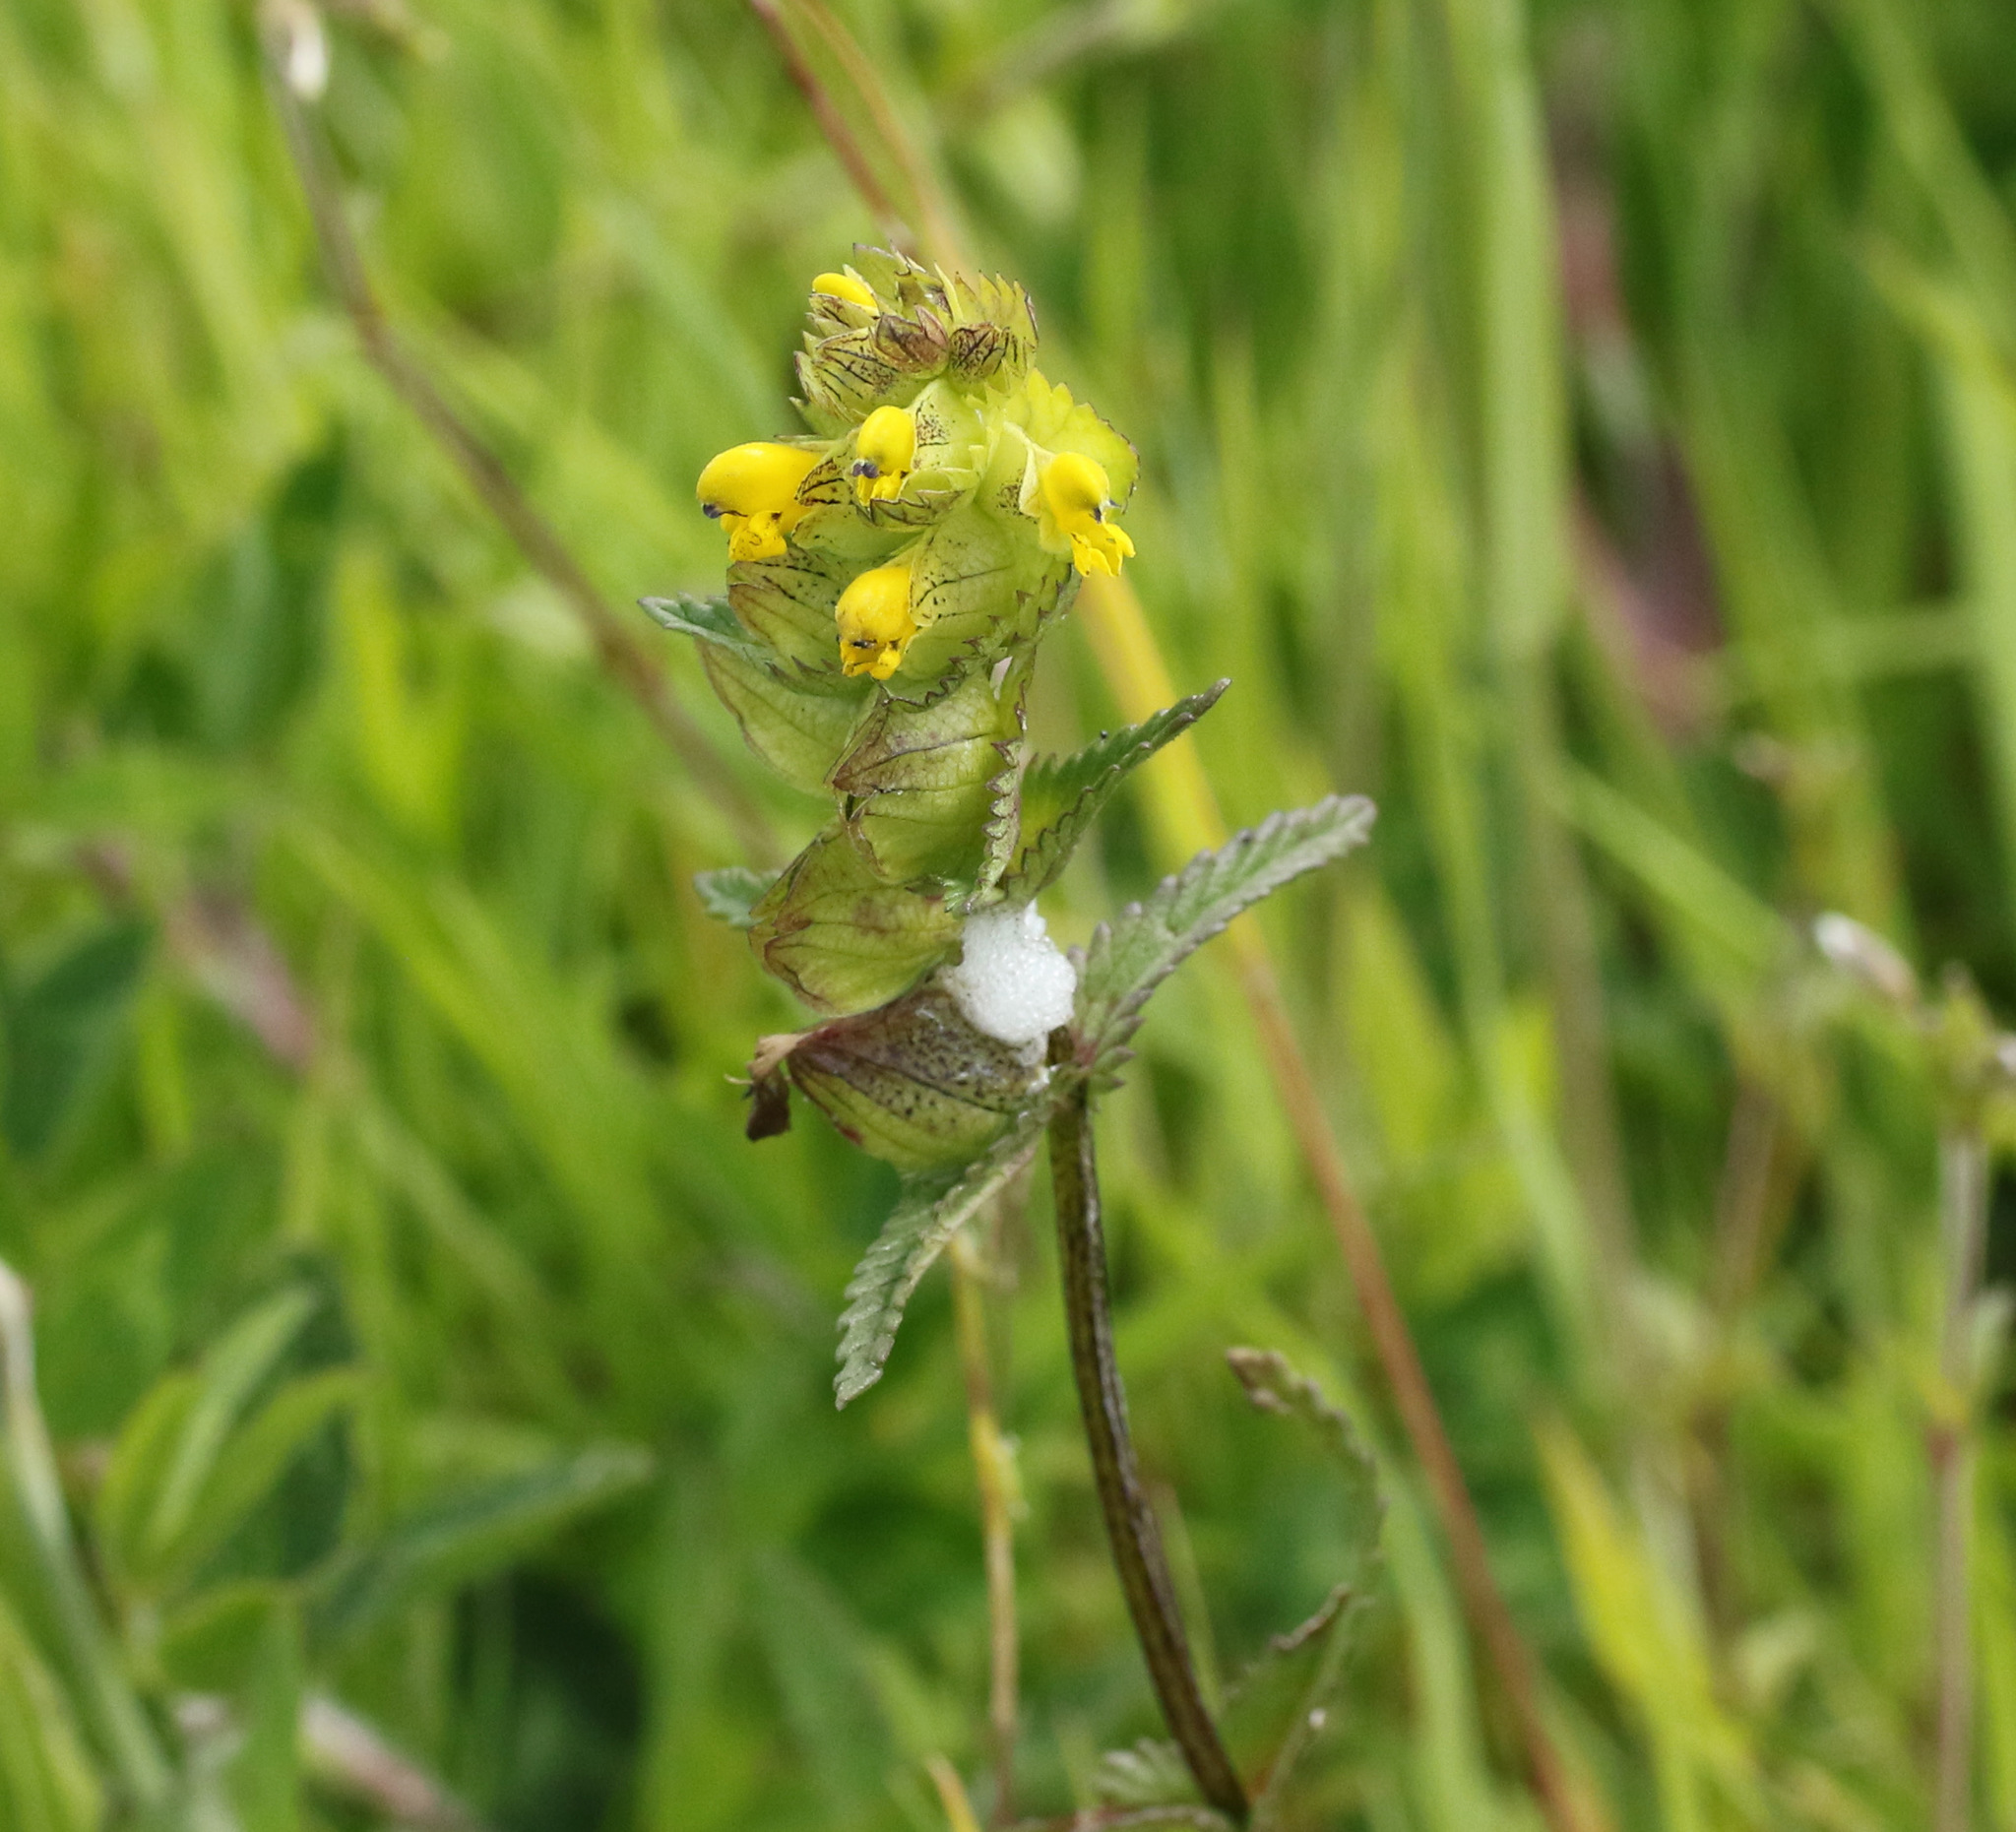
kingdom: Plantae
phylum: Tracheophyta
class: Magnoliopsida
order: Lamiales
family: Orobanchaceae
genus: Rhinanthus
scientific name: Rhinanthus minor
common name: Yellow-rattle
